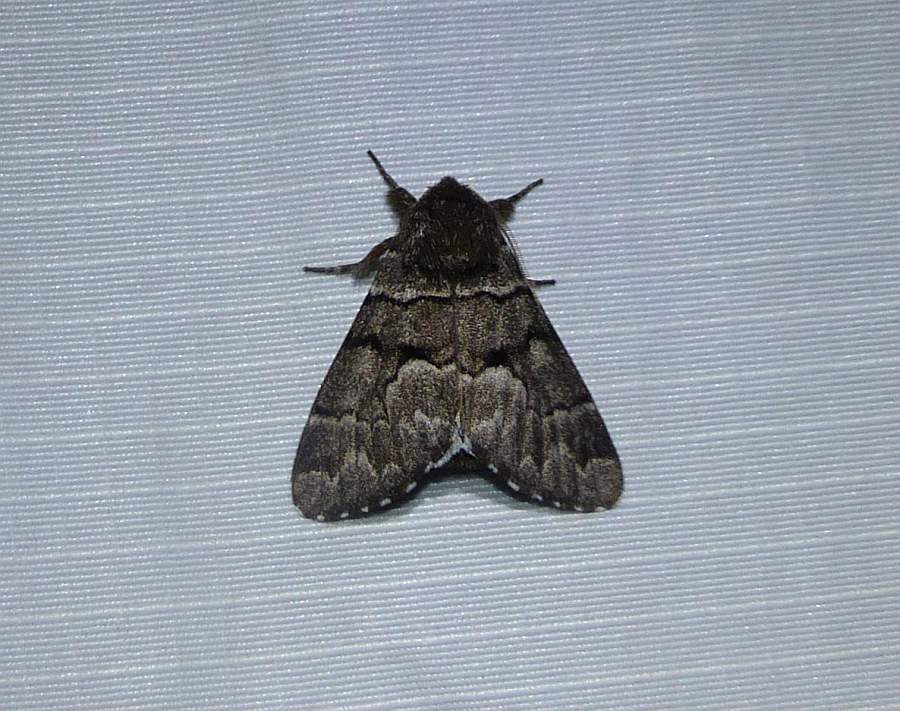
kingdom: Animalia
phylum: Arthropoda
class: Insecta
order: Lepidoptera
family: Noctuidae
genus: Panthea
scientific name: Panthea furcilla
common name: Eastern panthea moth
